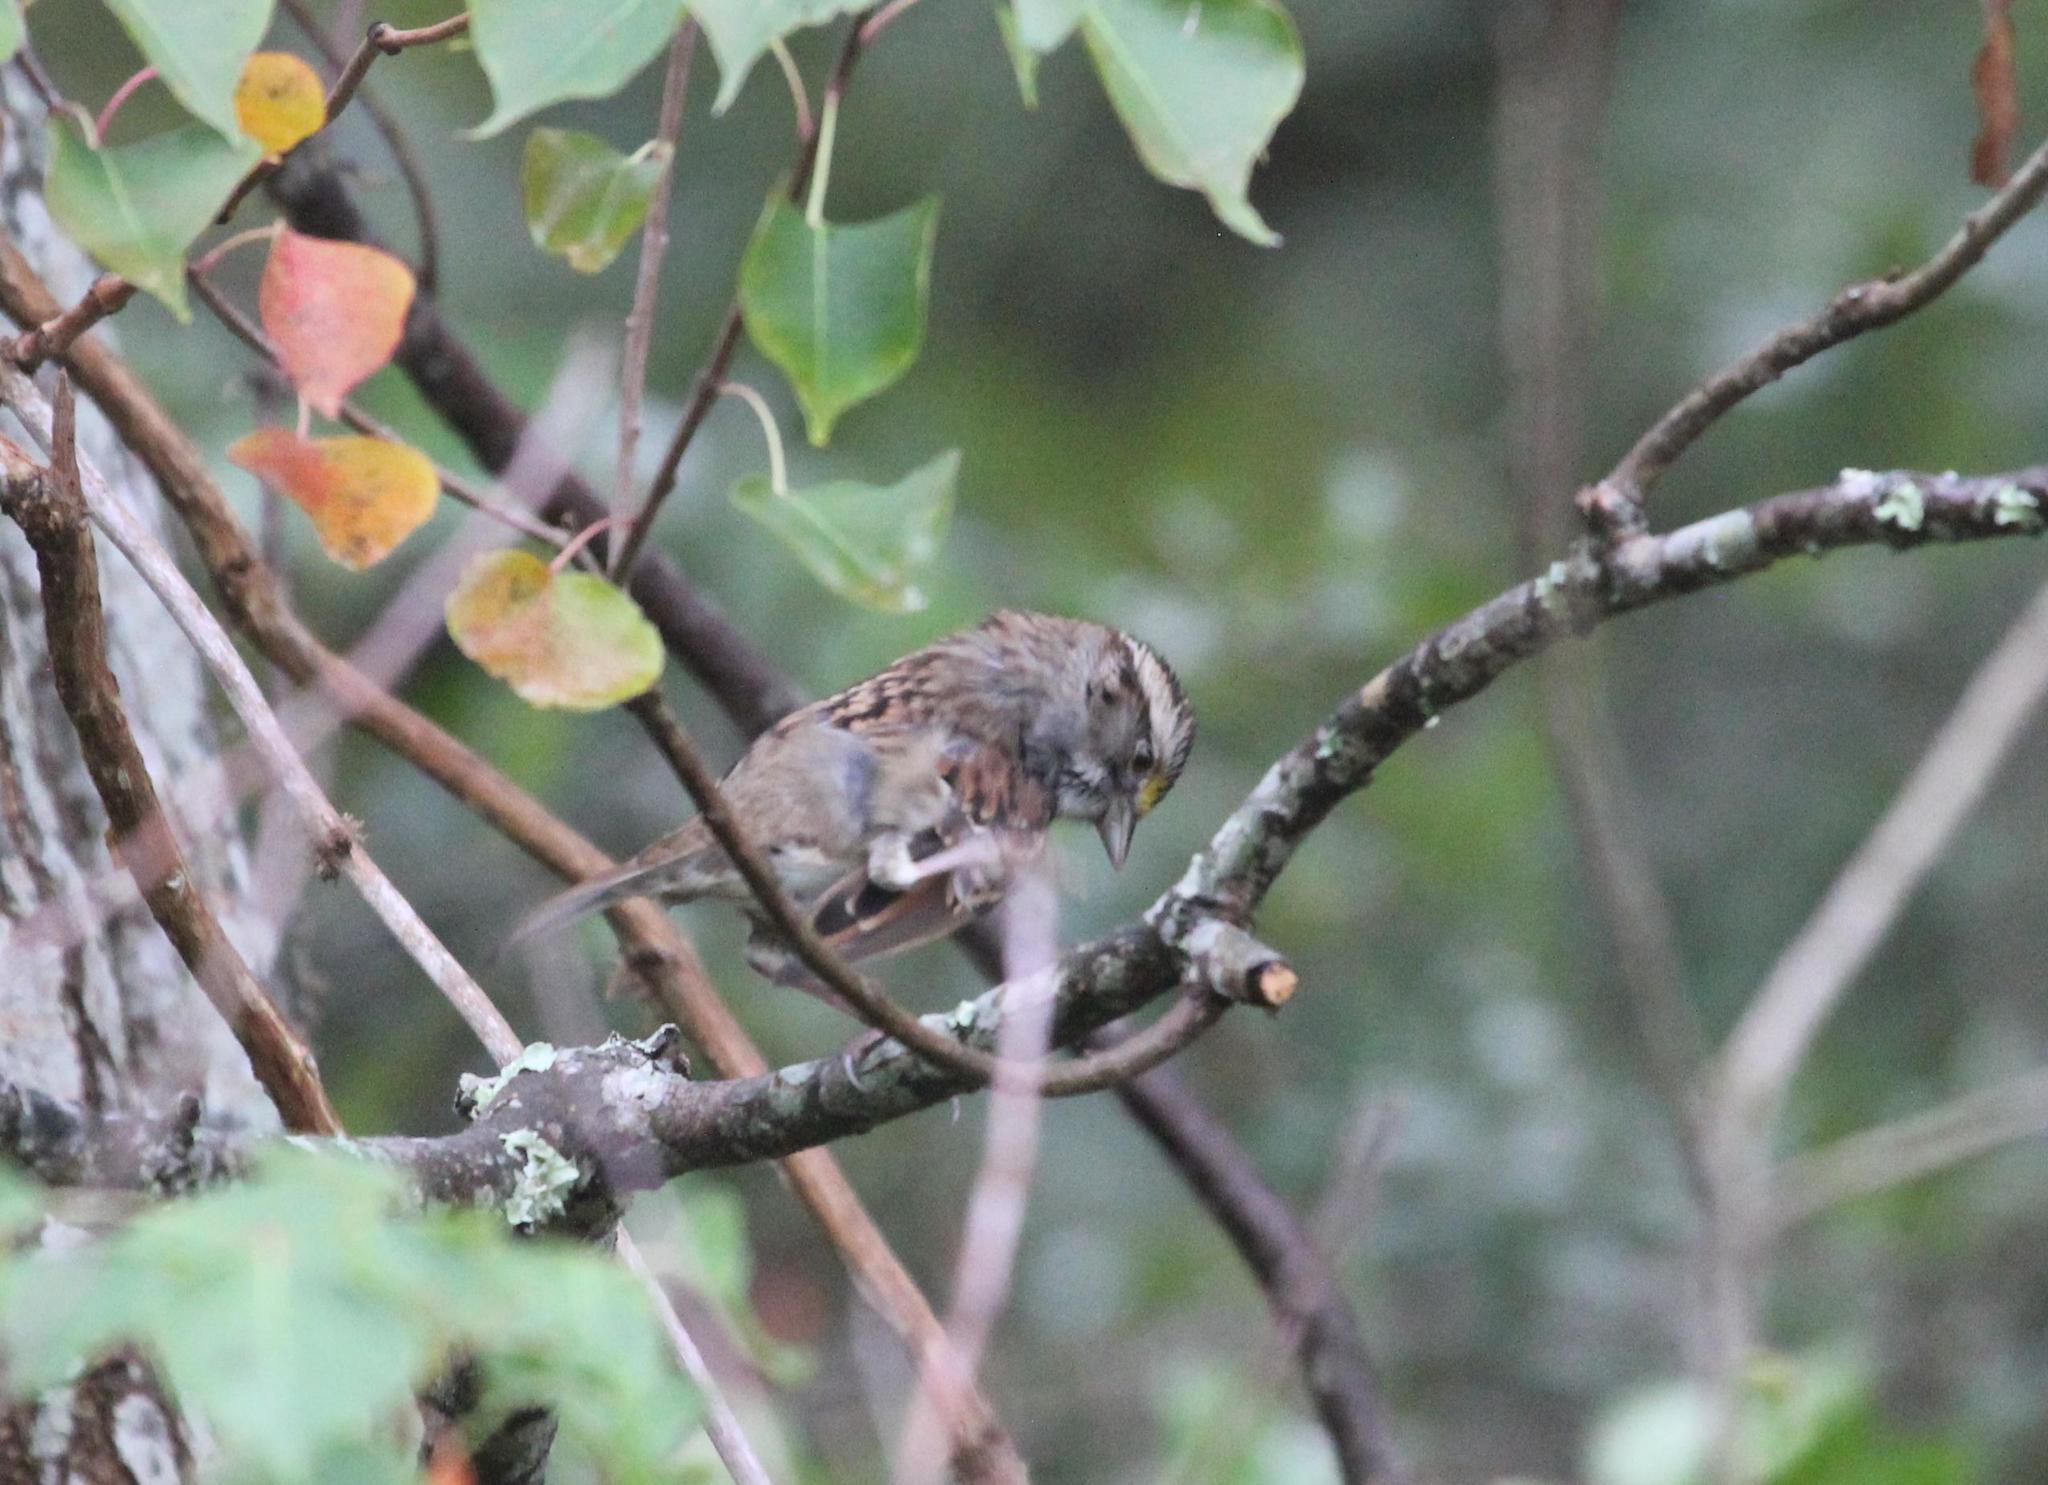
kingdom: Animalia
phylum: Chordata
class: Aves
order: Passeriformes
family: Passerellidae
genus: Zonotrichia
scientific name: Zonotrichia albicollis
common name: White-throated sparrow
